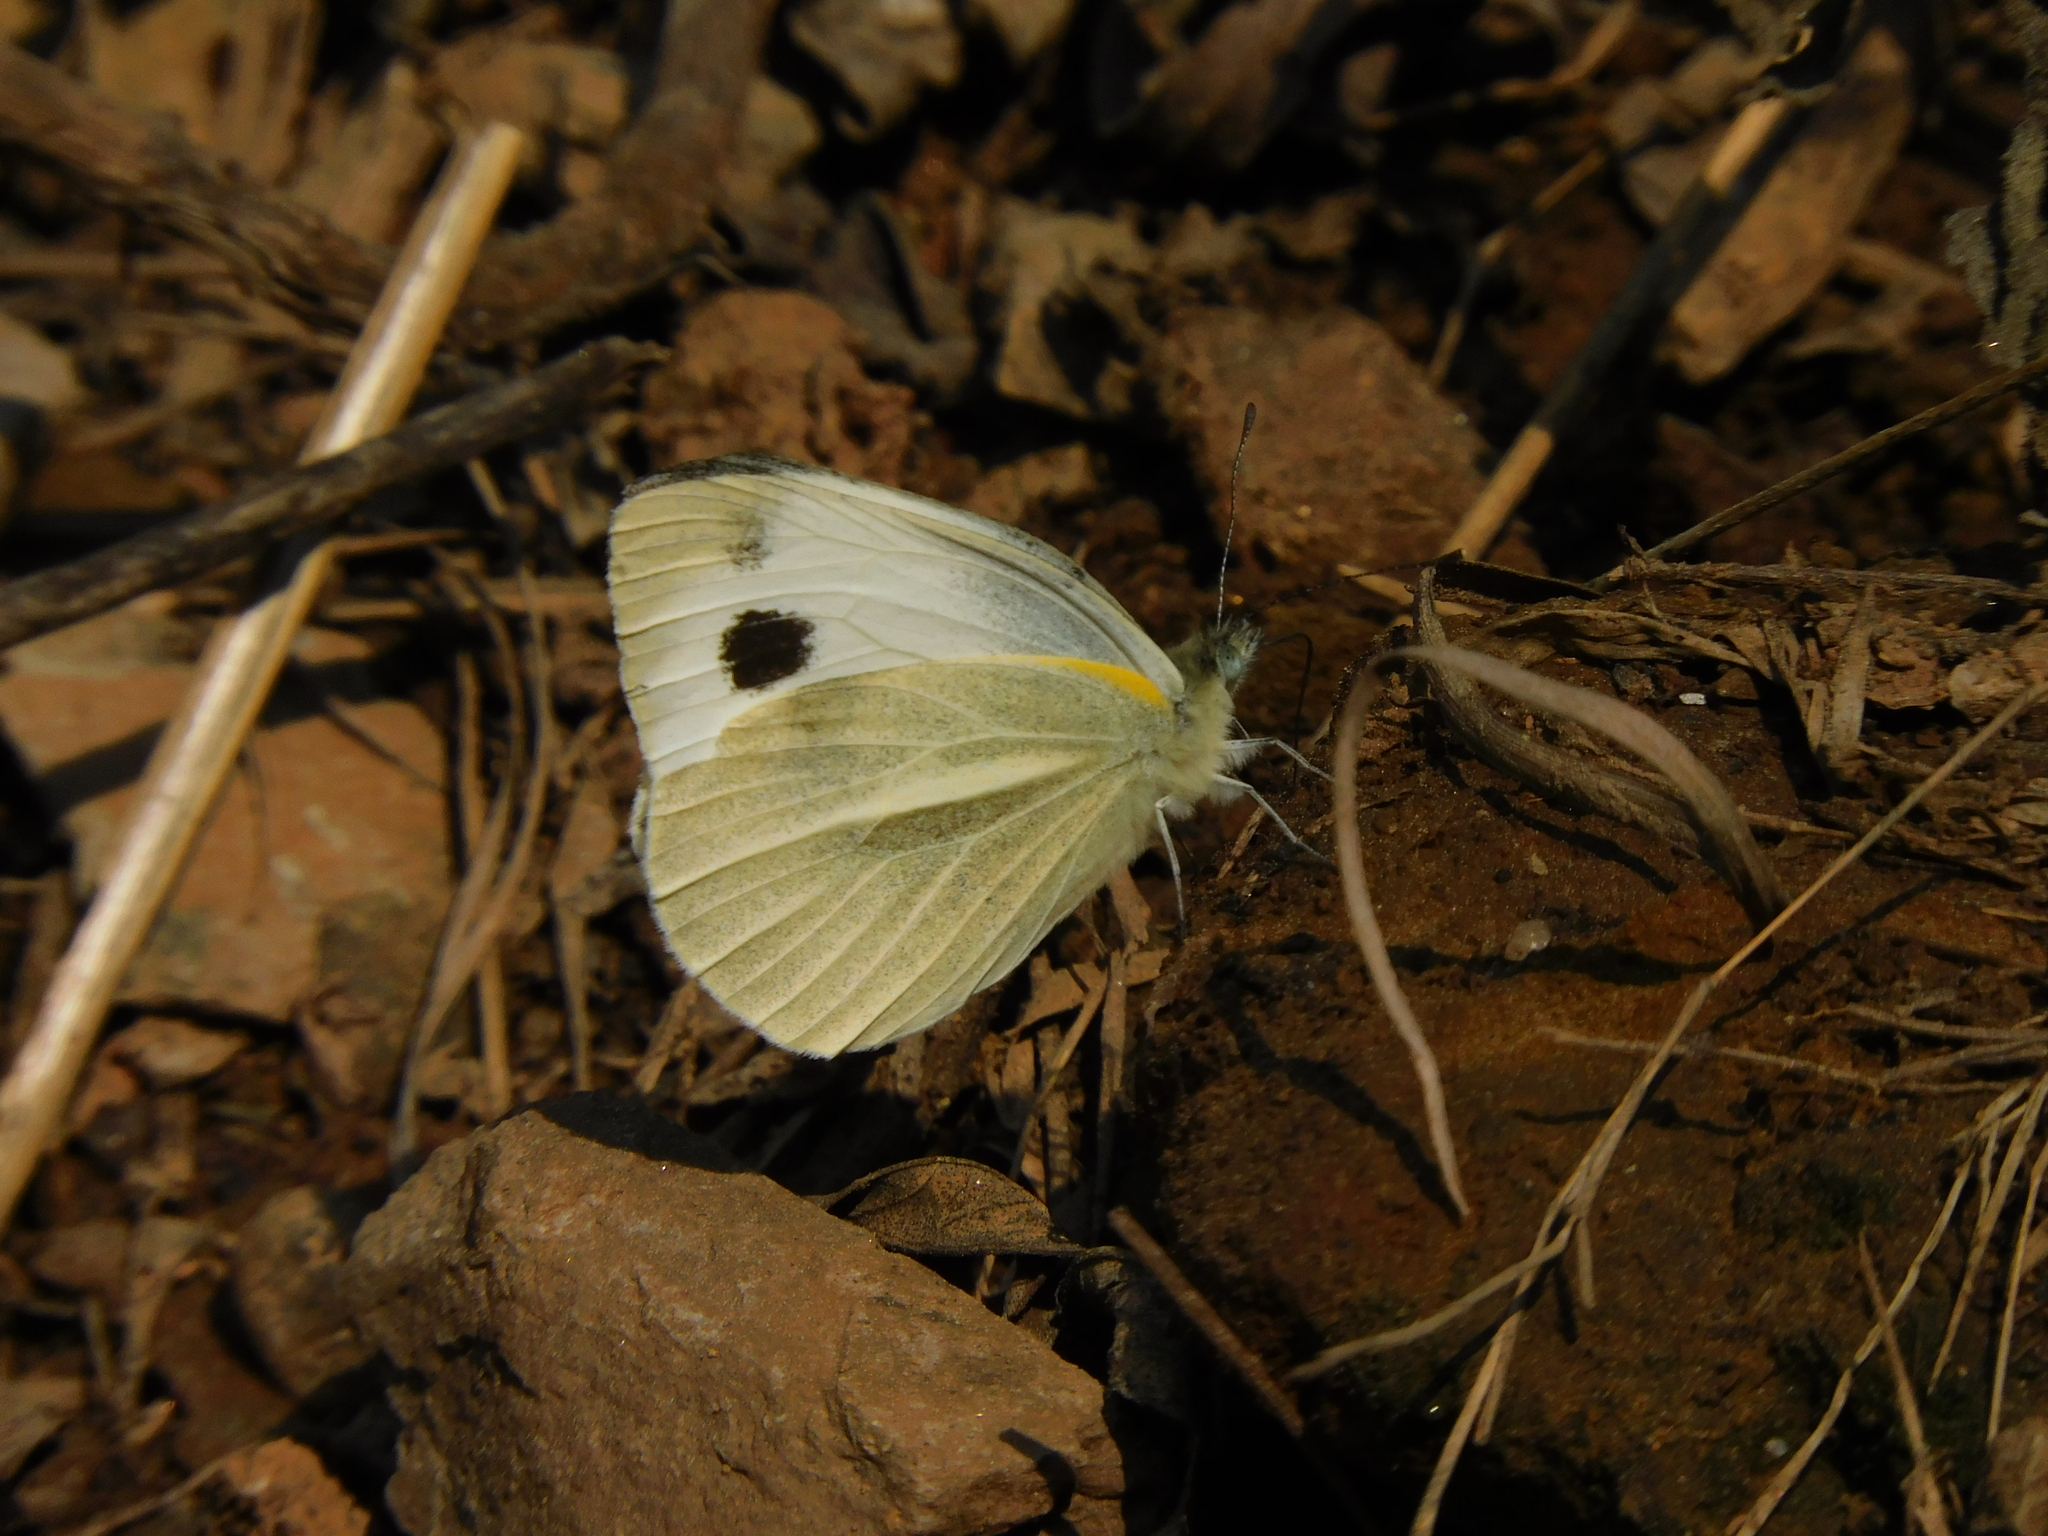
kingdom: Animalia
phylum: Arthropoda
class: Insecta
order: Lepidoptera
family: Pieridae
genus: Pieris
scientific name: Pieris canidia
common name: Indian cabbage white
